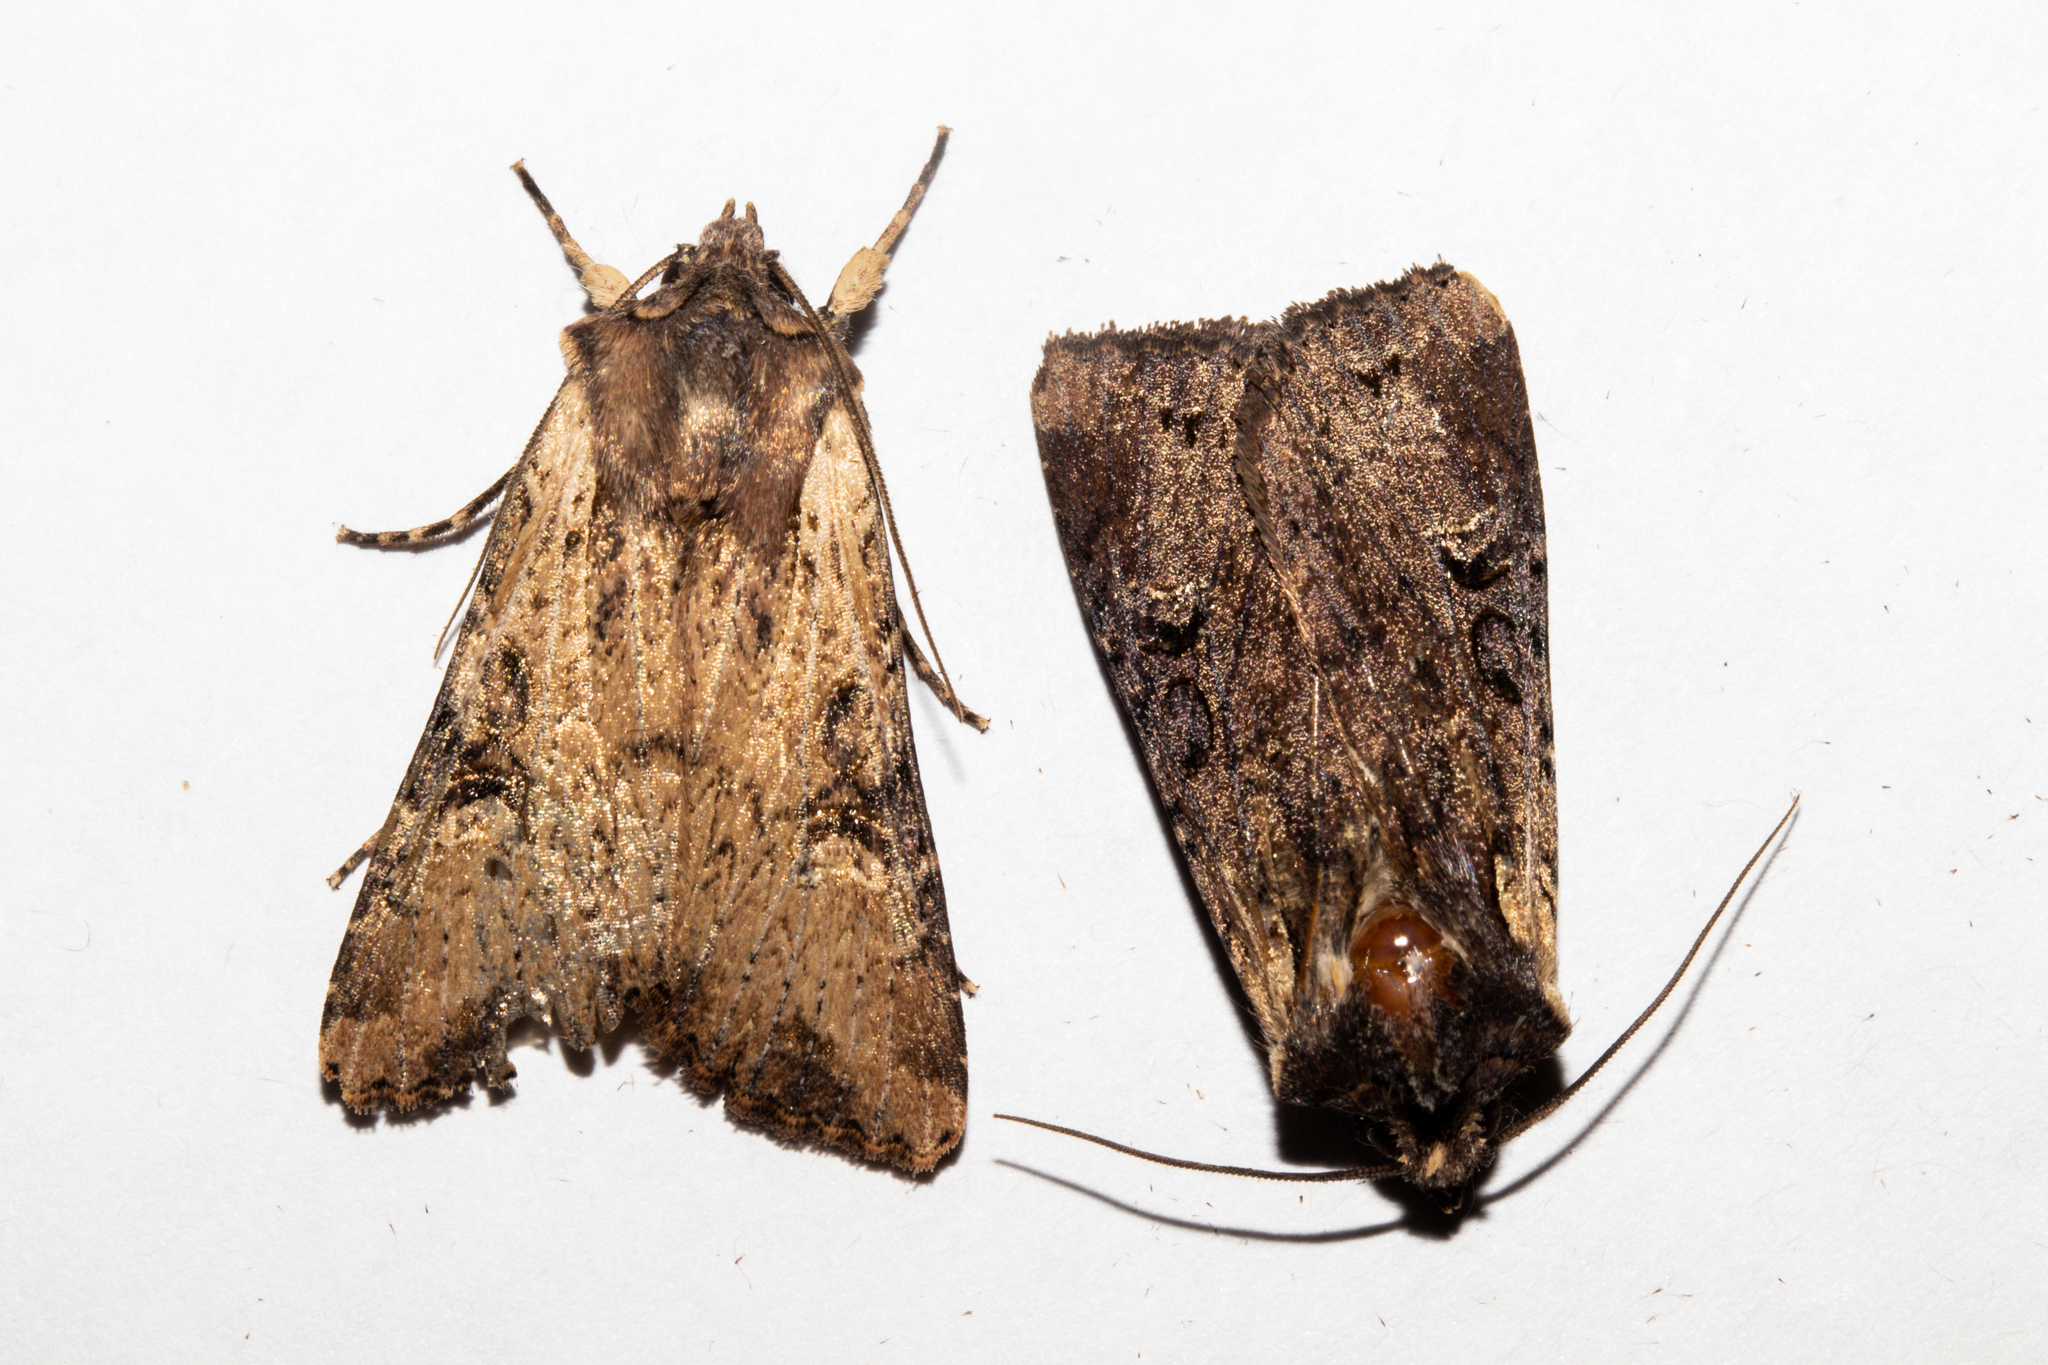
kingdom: Animalia
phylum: Arthropoda
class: Insecta
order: Lepidoptera
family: Noctuidae
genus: Ichneutica
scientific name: Ichneutica omoplaca
